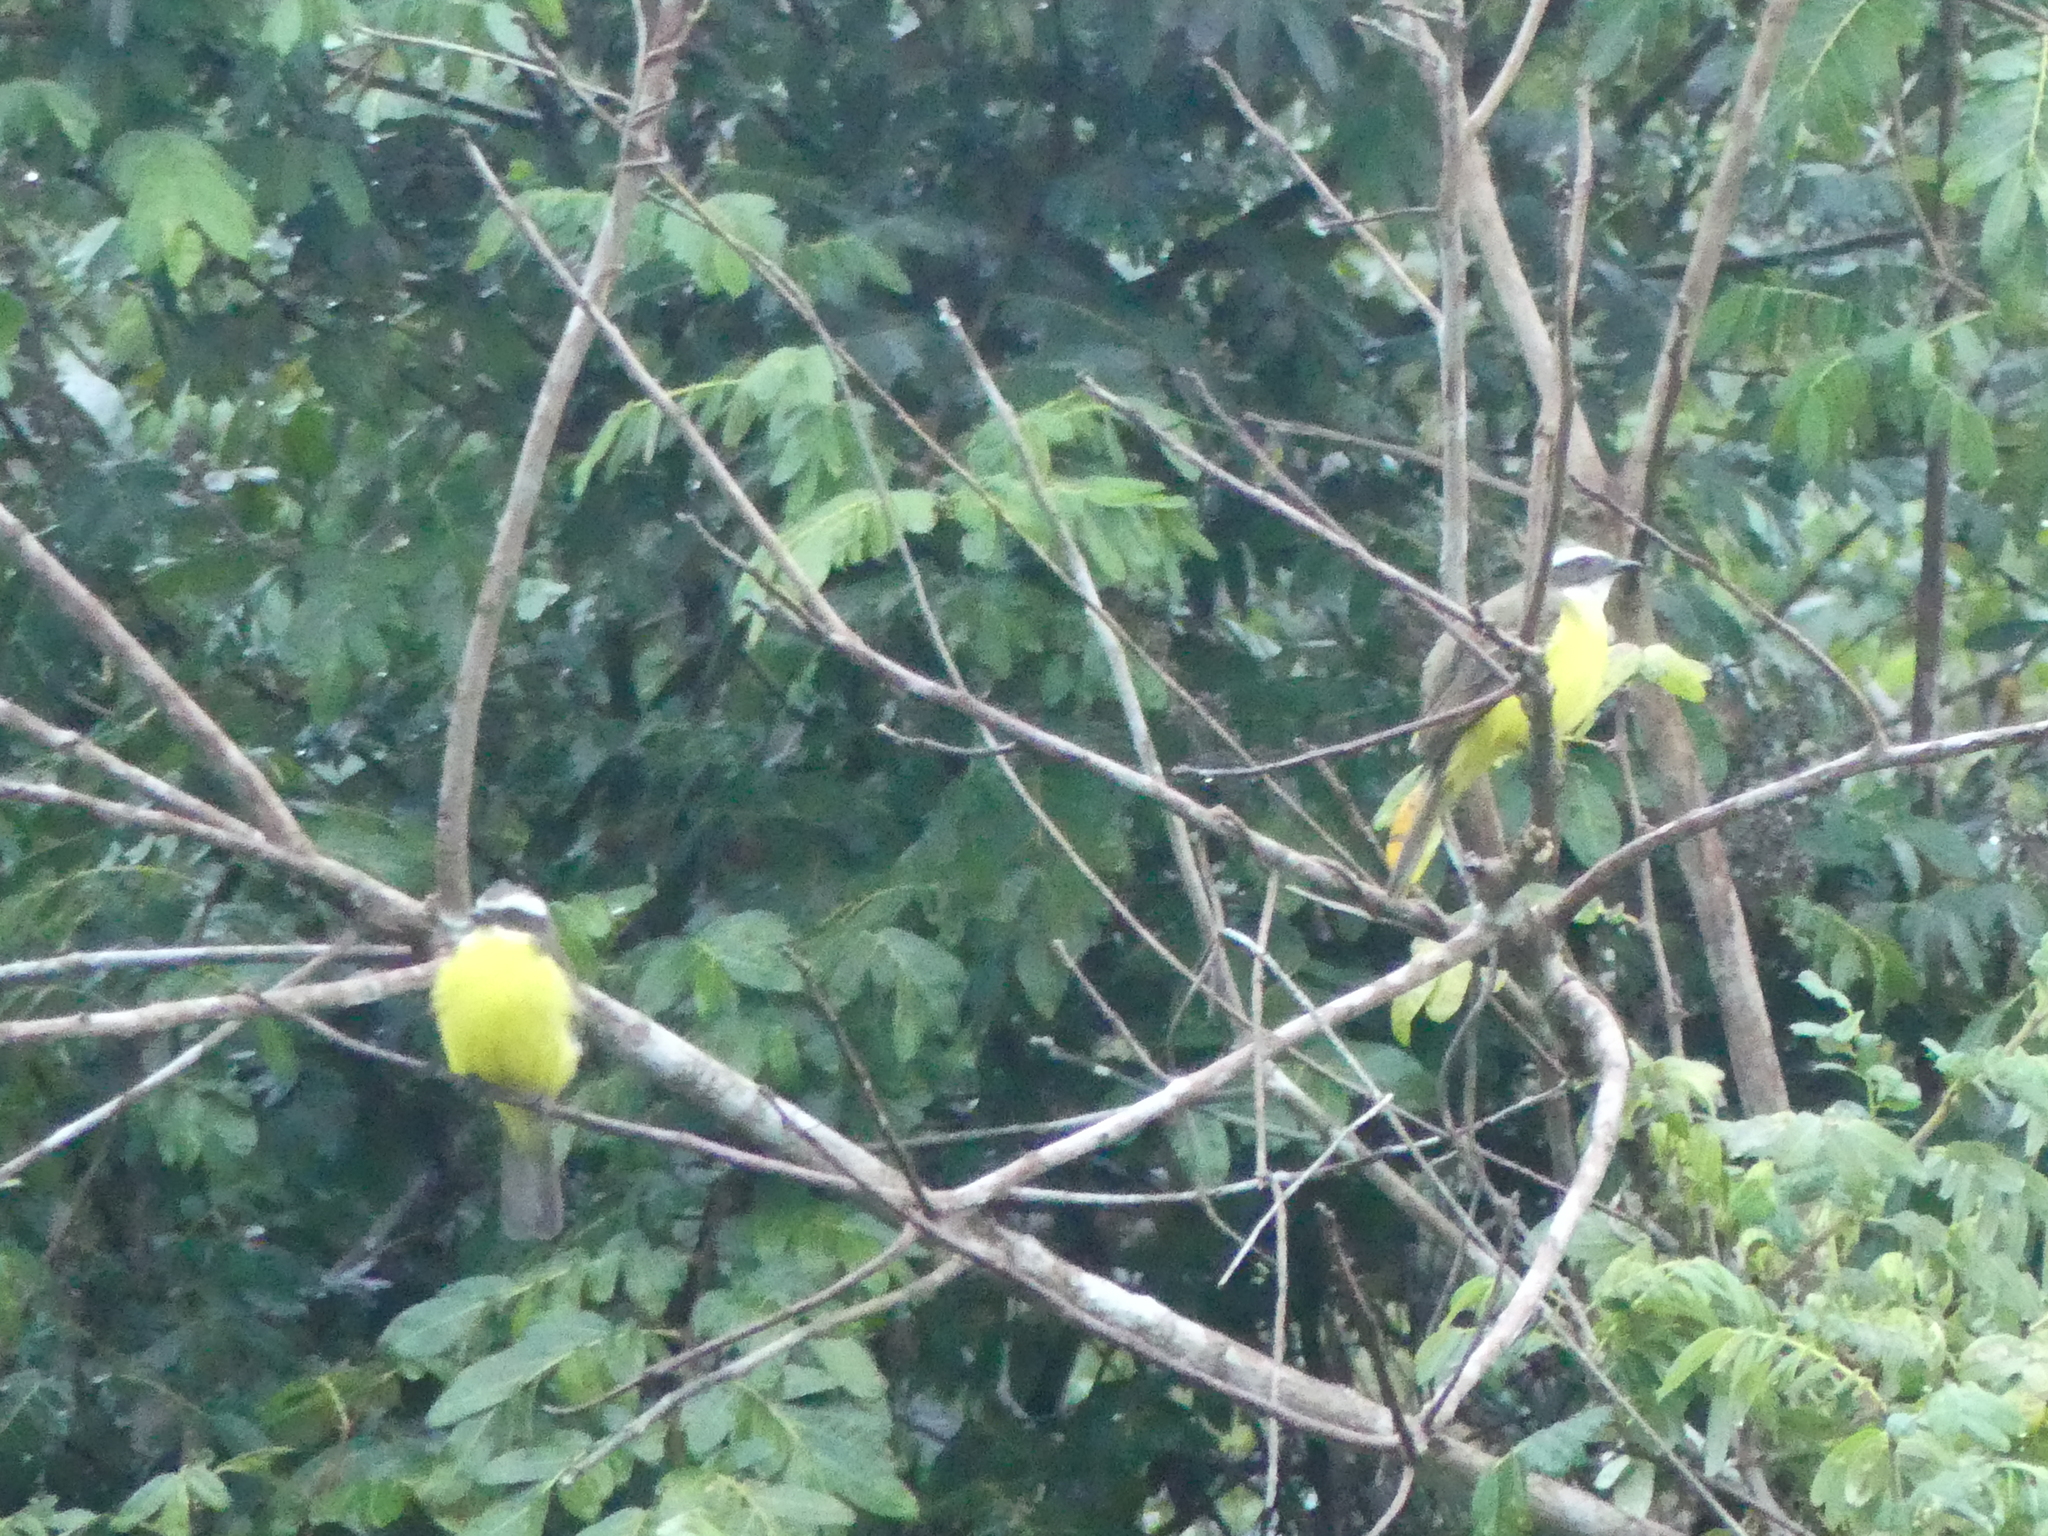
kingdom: Animalia
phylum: Chordata
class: Aves
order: Passeriformes
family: Tyrannidae
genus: Myiozetetes
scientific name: Myiozetetes similis
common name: Social flycatcher
